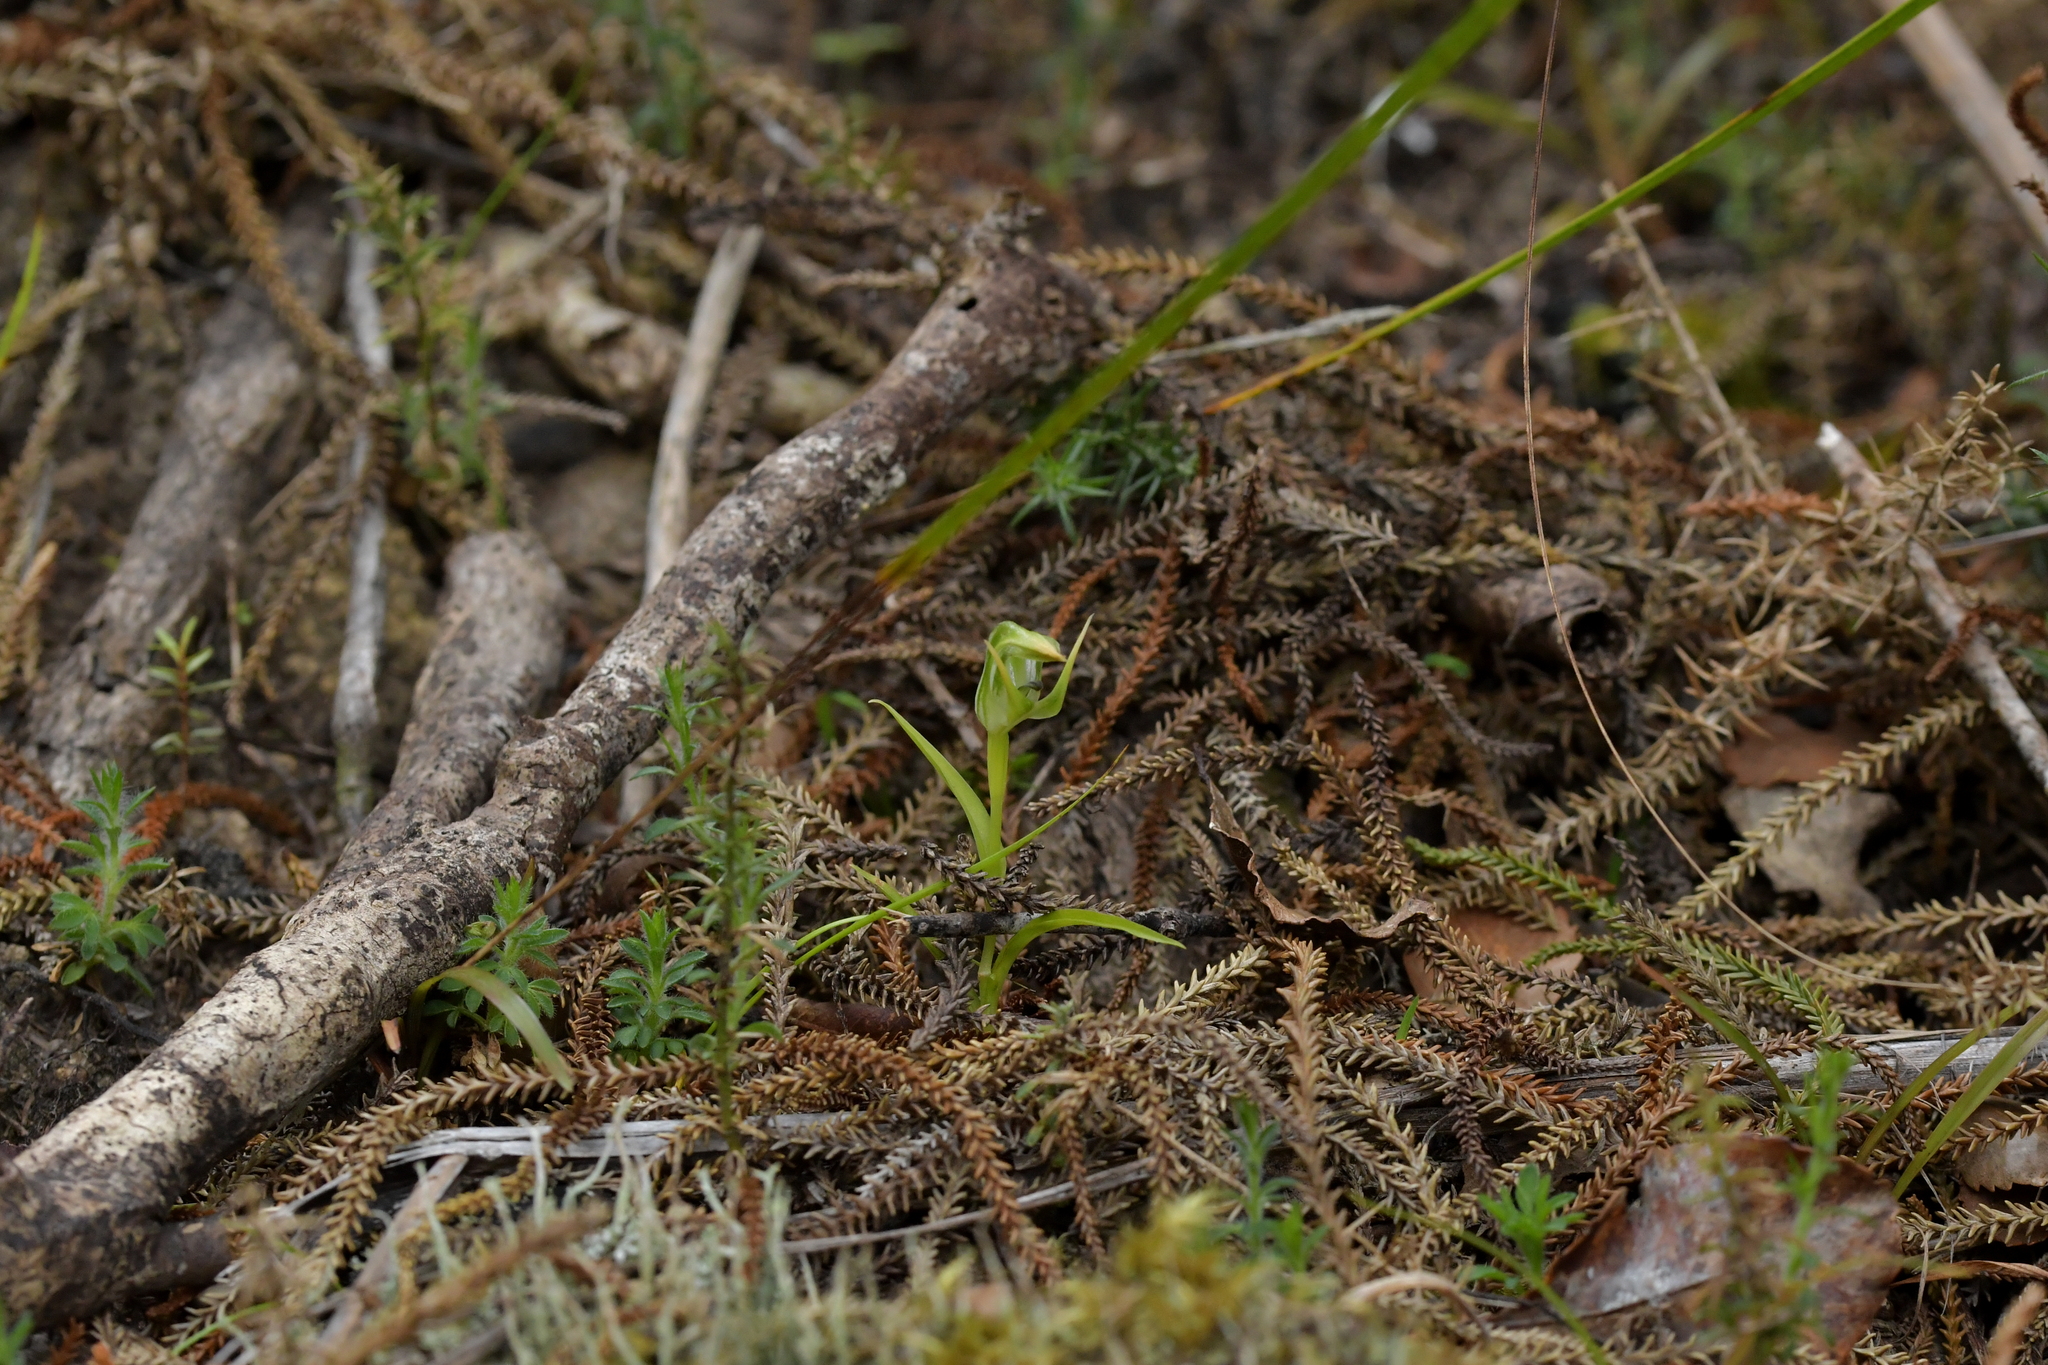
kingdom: Plantae
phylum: Tracheophyta
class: Liliopsida
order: Asparagales
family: Orchidaceae
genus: Pterostylis
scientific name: Pterostylis graminea
